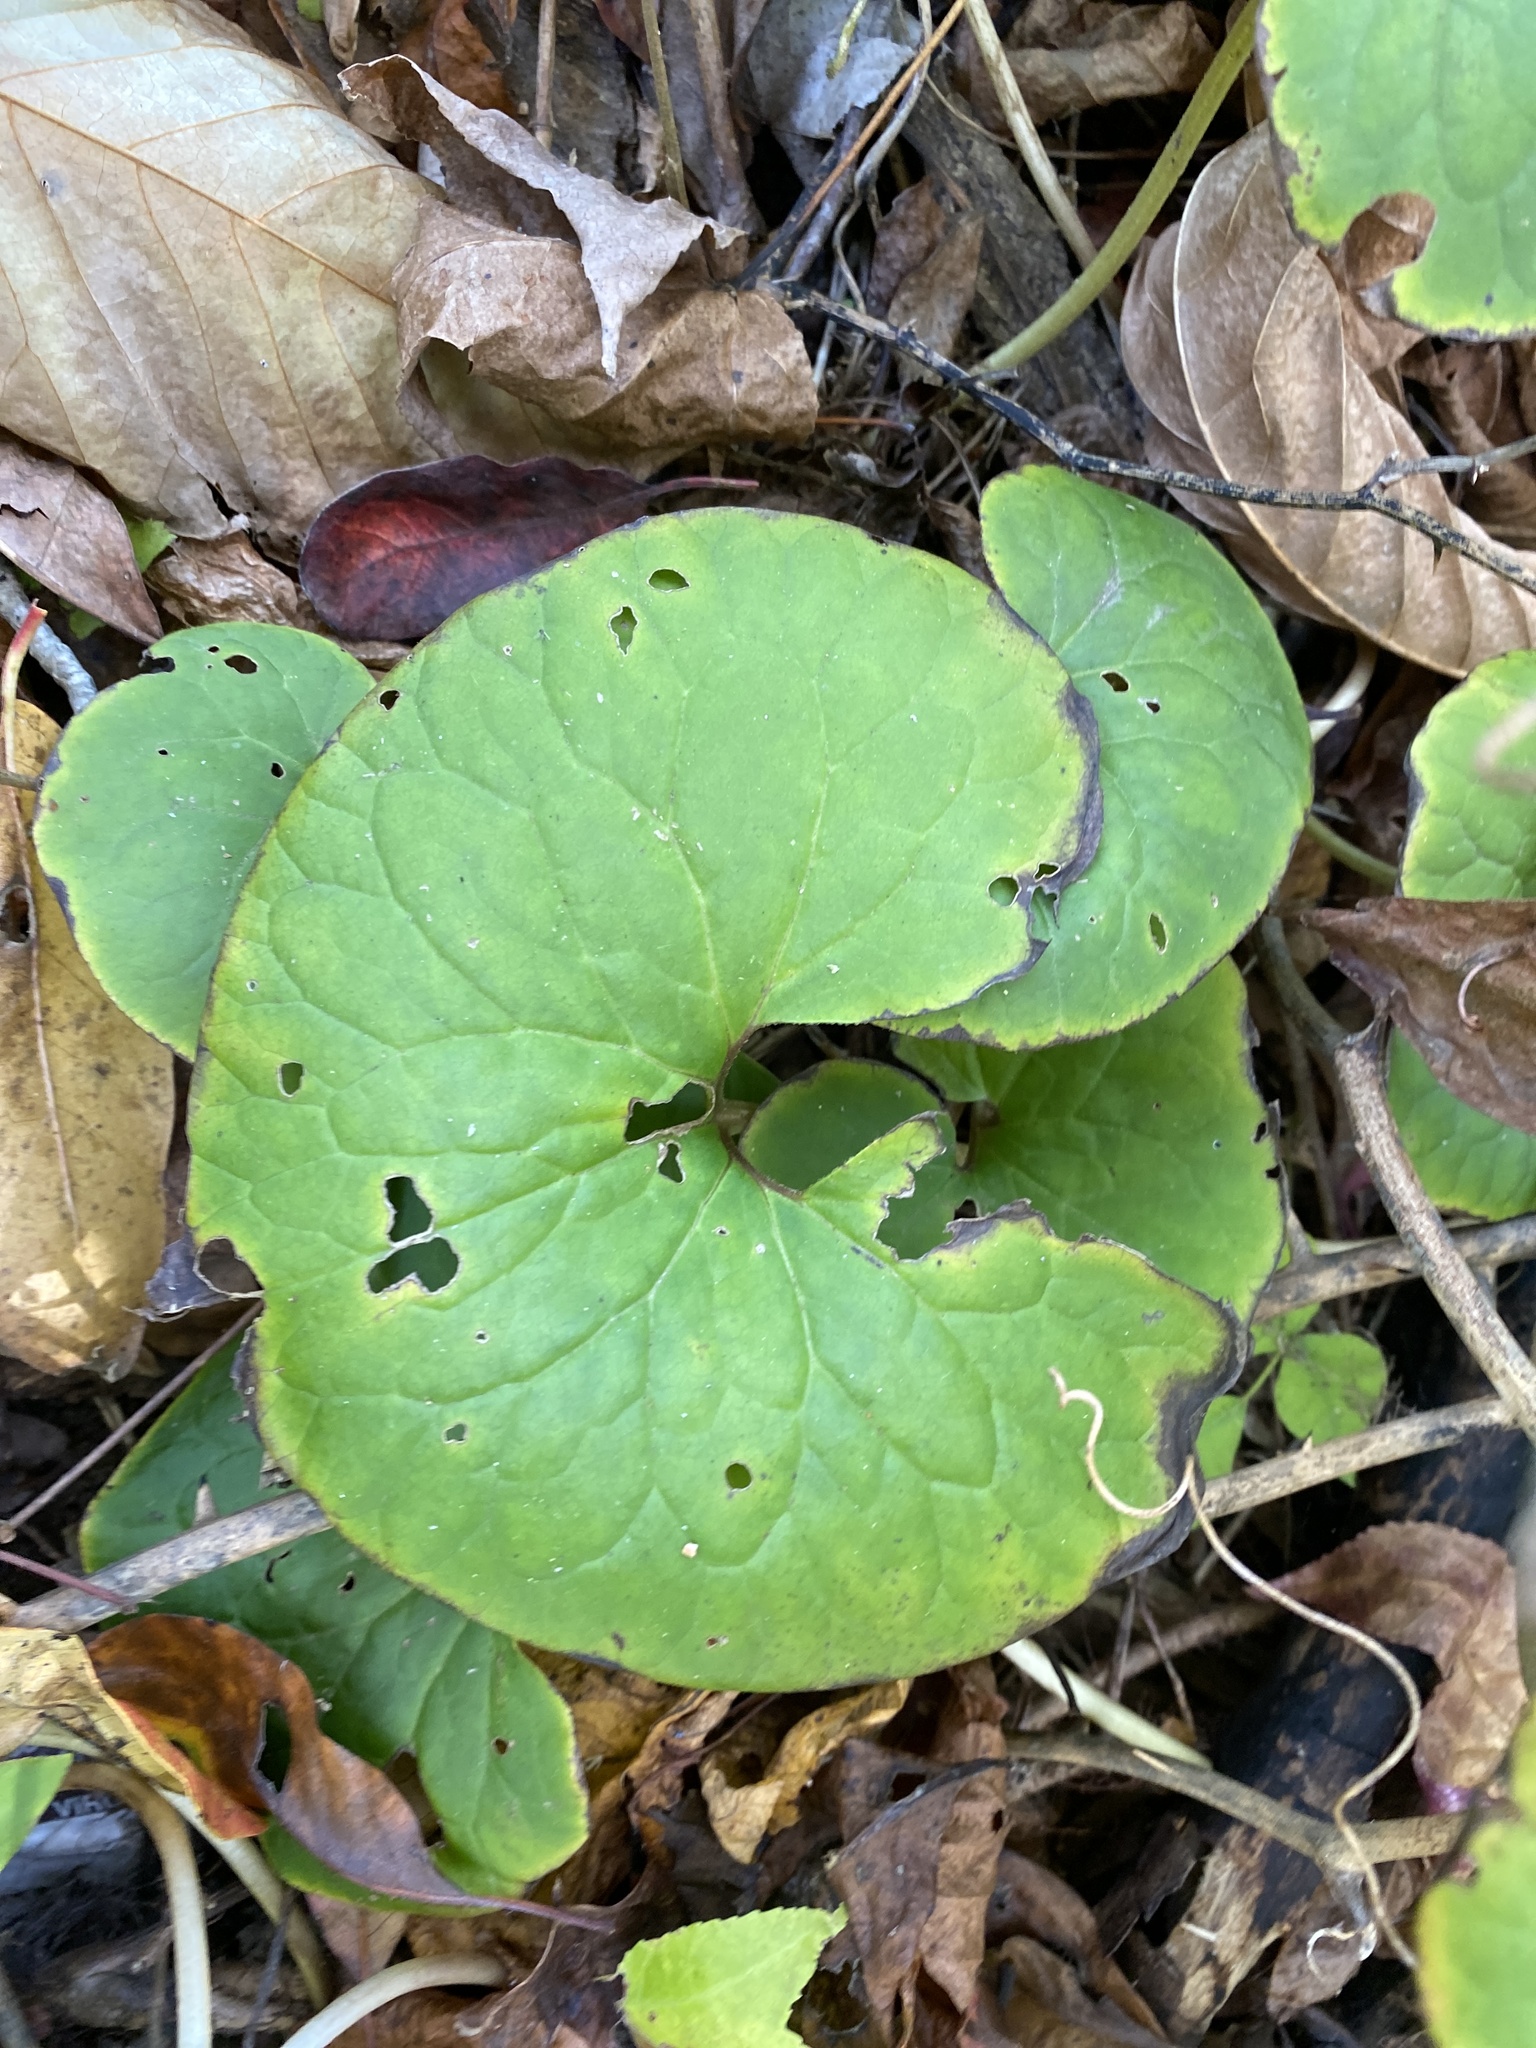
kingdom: Plantae
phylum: Tracheophyta
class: Magnoliopsida
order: Piperales
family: Aristolochiaceae
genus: Asarum
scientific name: Asarum canadense
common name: Wild ginger
